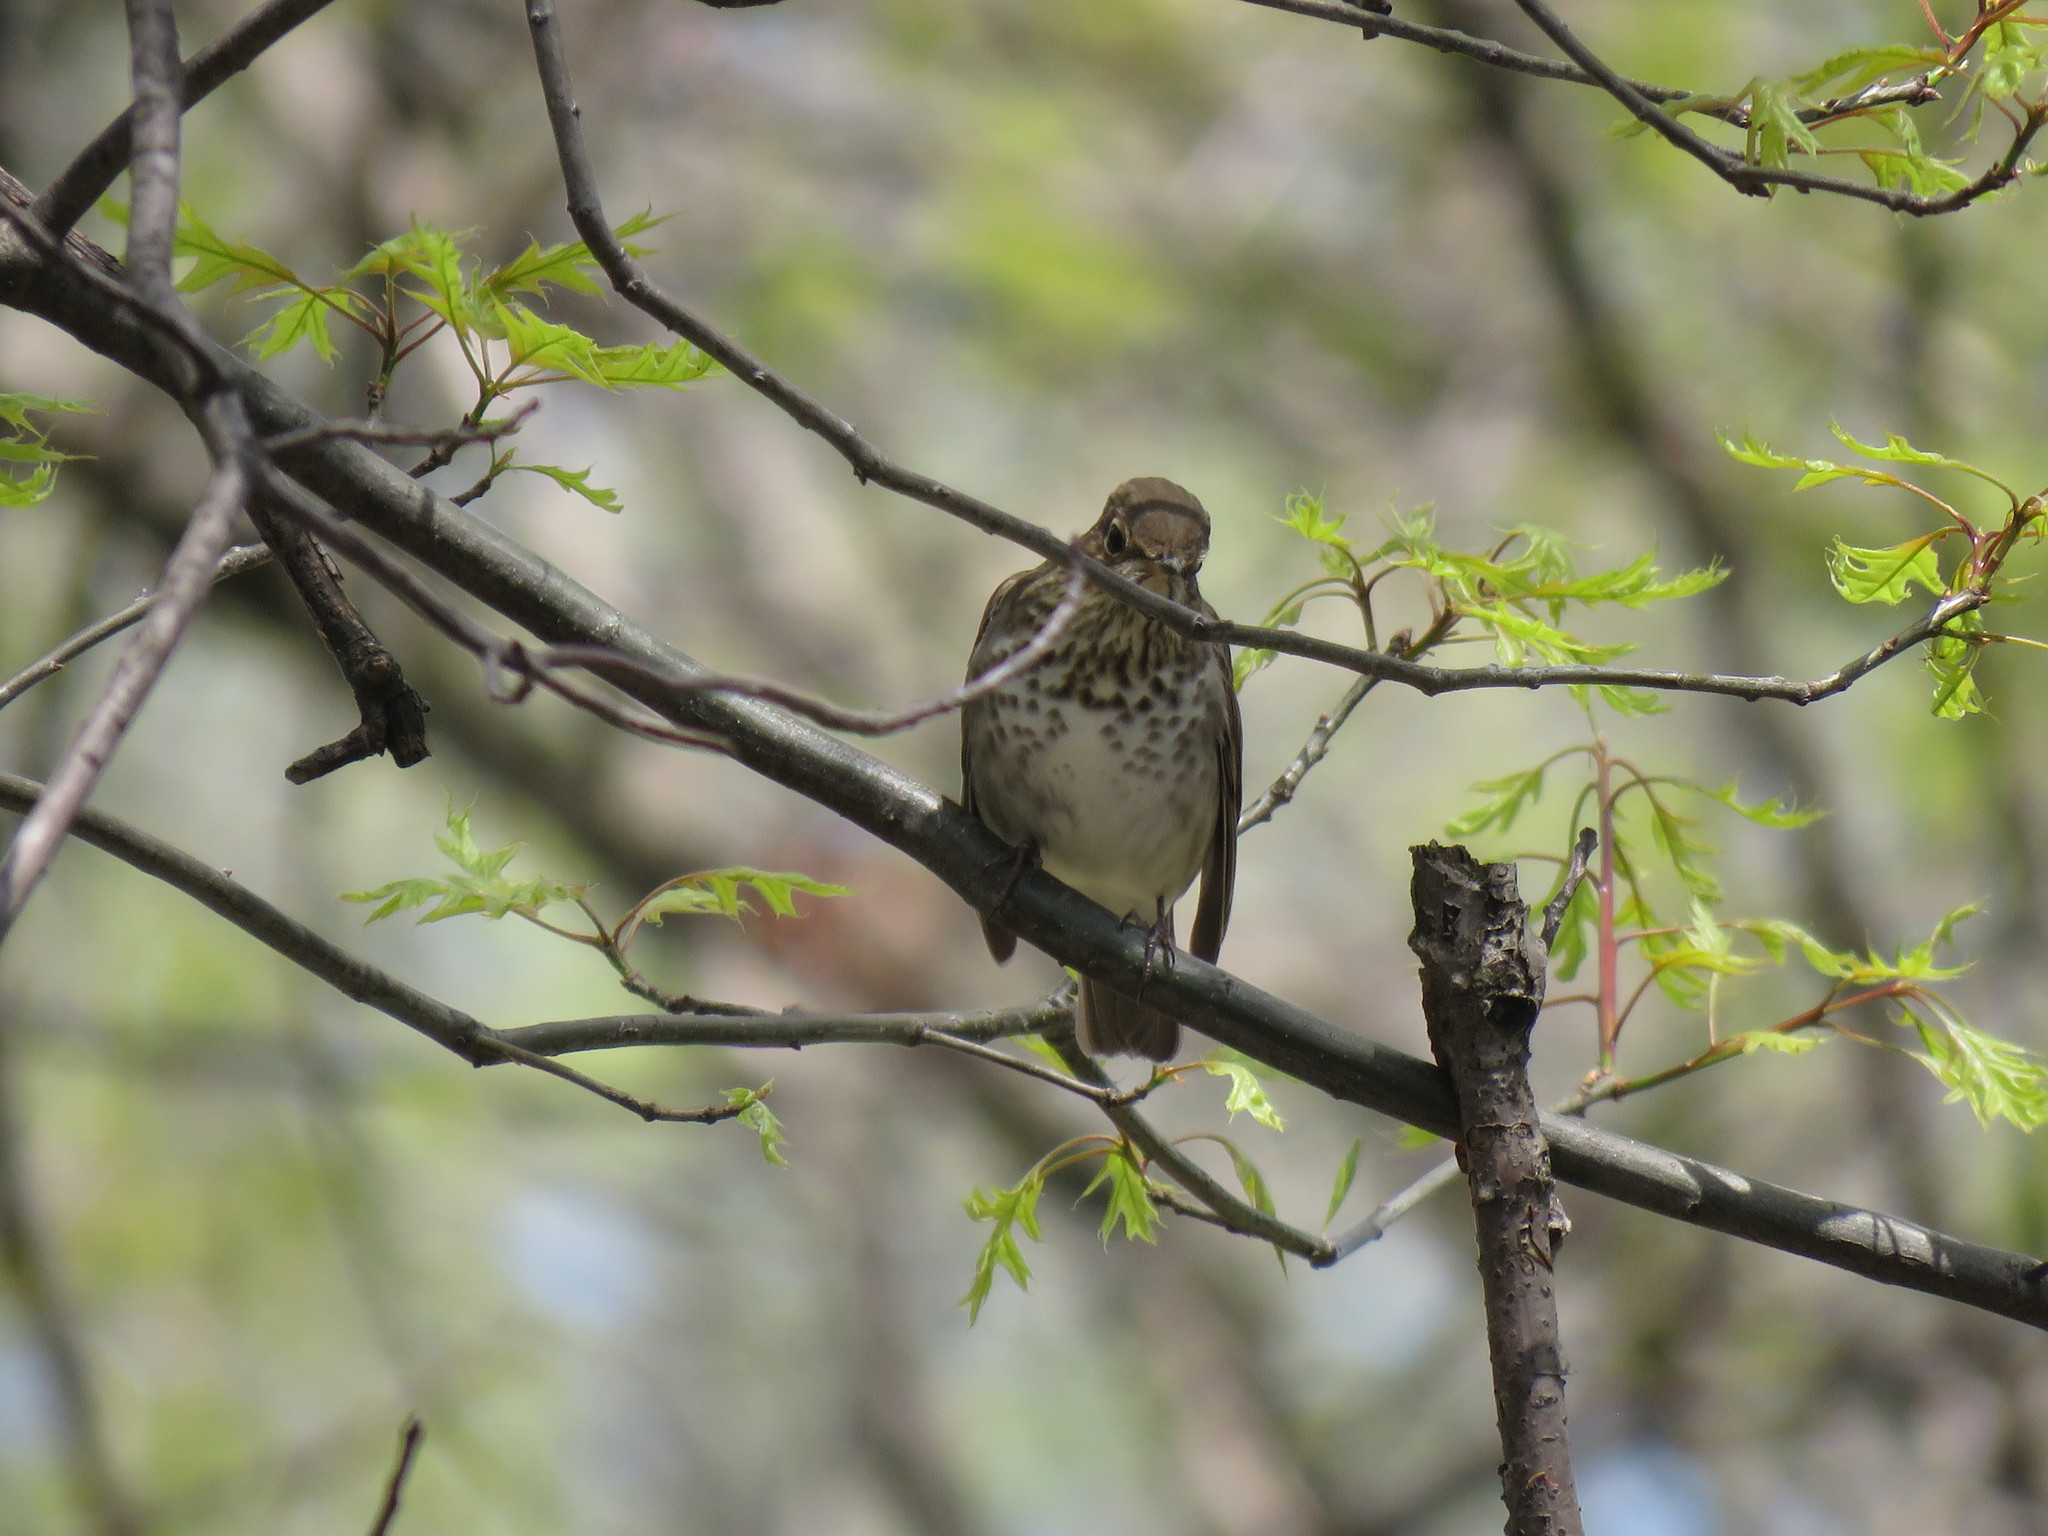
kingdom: Animalia
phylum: Chordata
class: Aves
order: Passeriformes
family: Turdidae
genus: Catharus
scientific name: Catharus ustulatus
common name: Swainson's thrush
